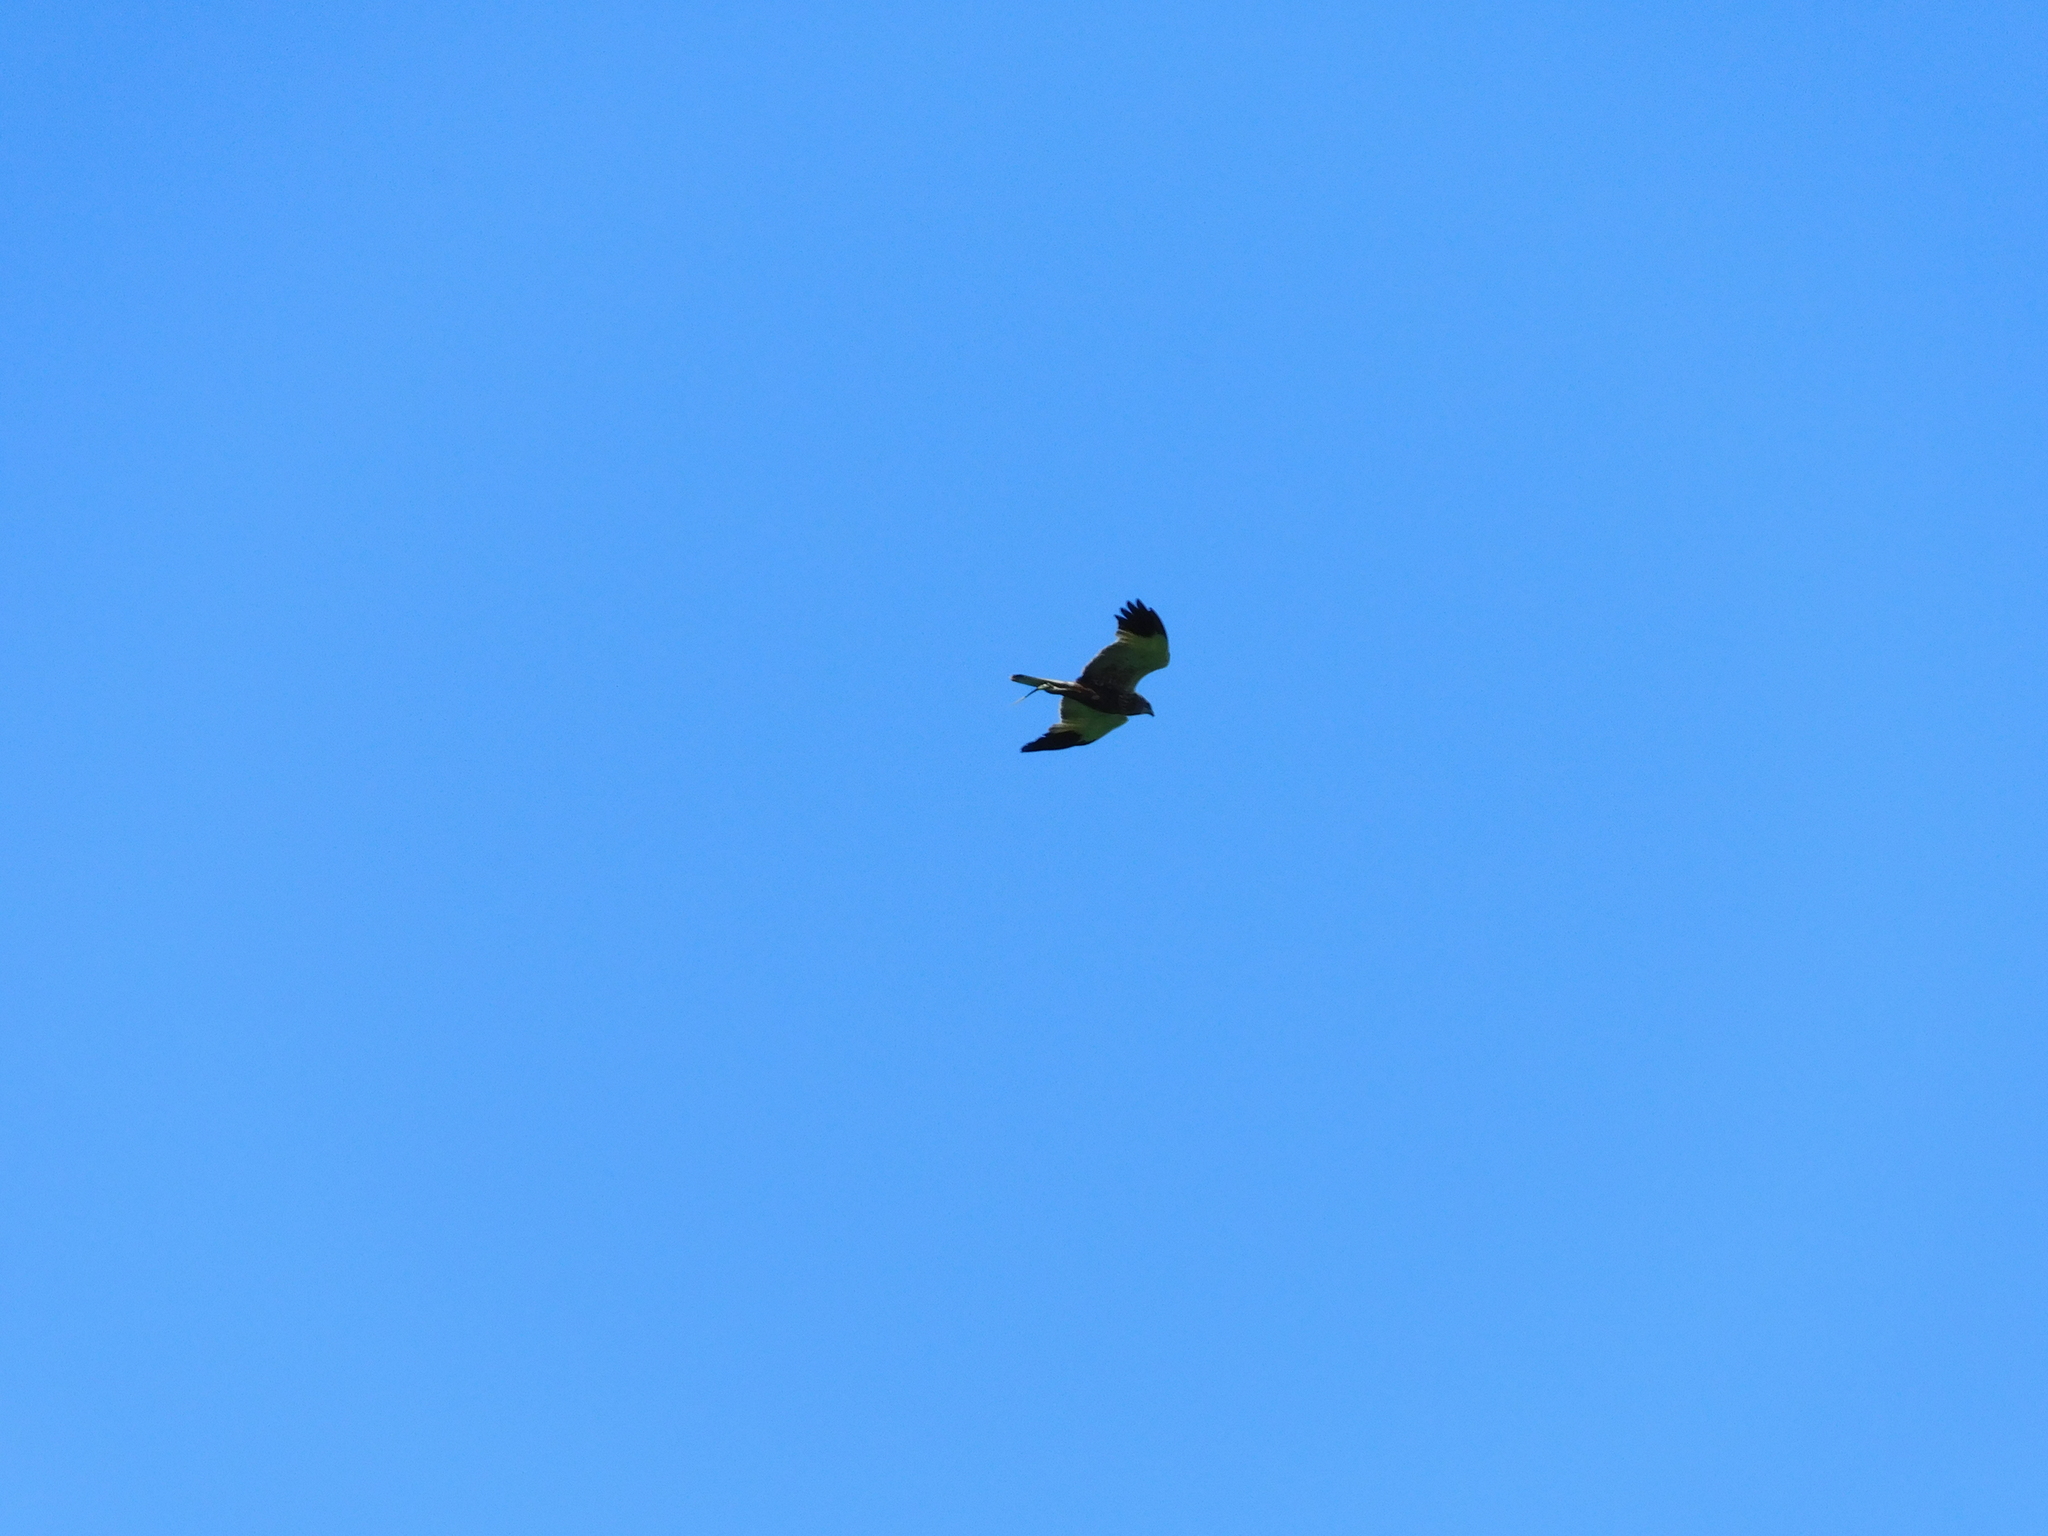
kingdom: Animalia
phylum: Chordata
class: Aves
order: Accipitriformes
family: Accipitridae
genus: Circus
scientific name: Circus aeruginosus
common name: Western marsh harrier
